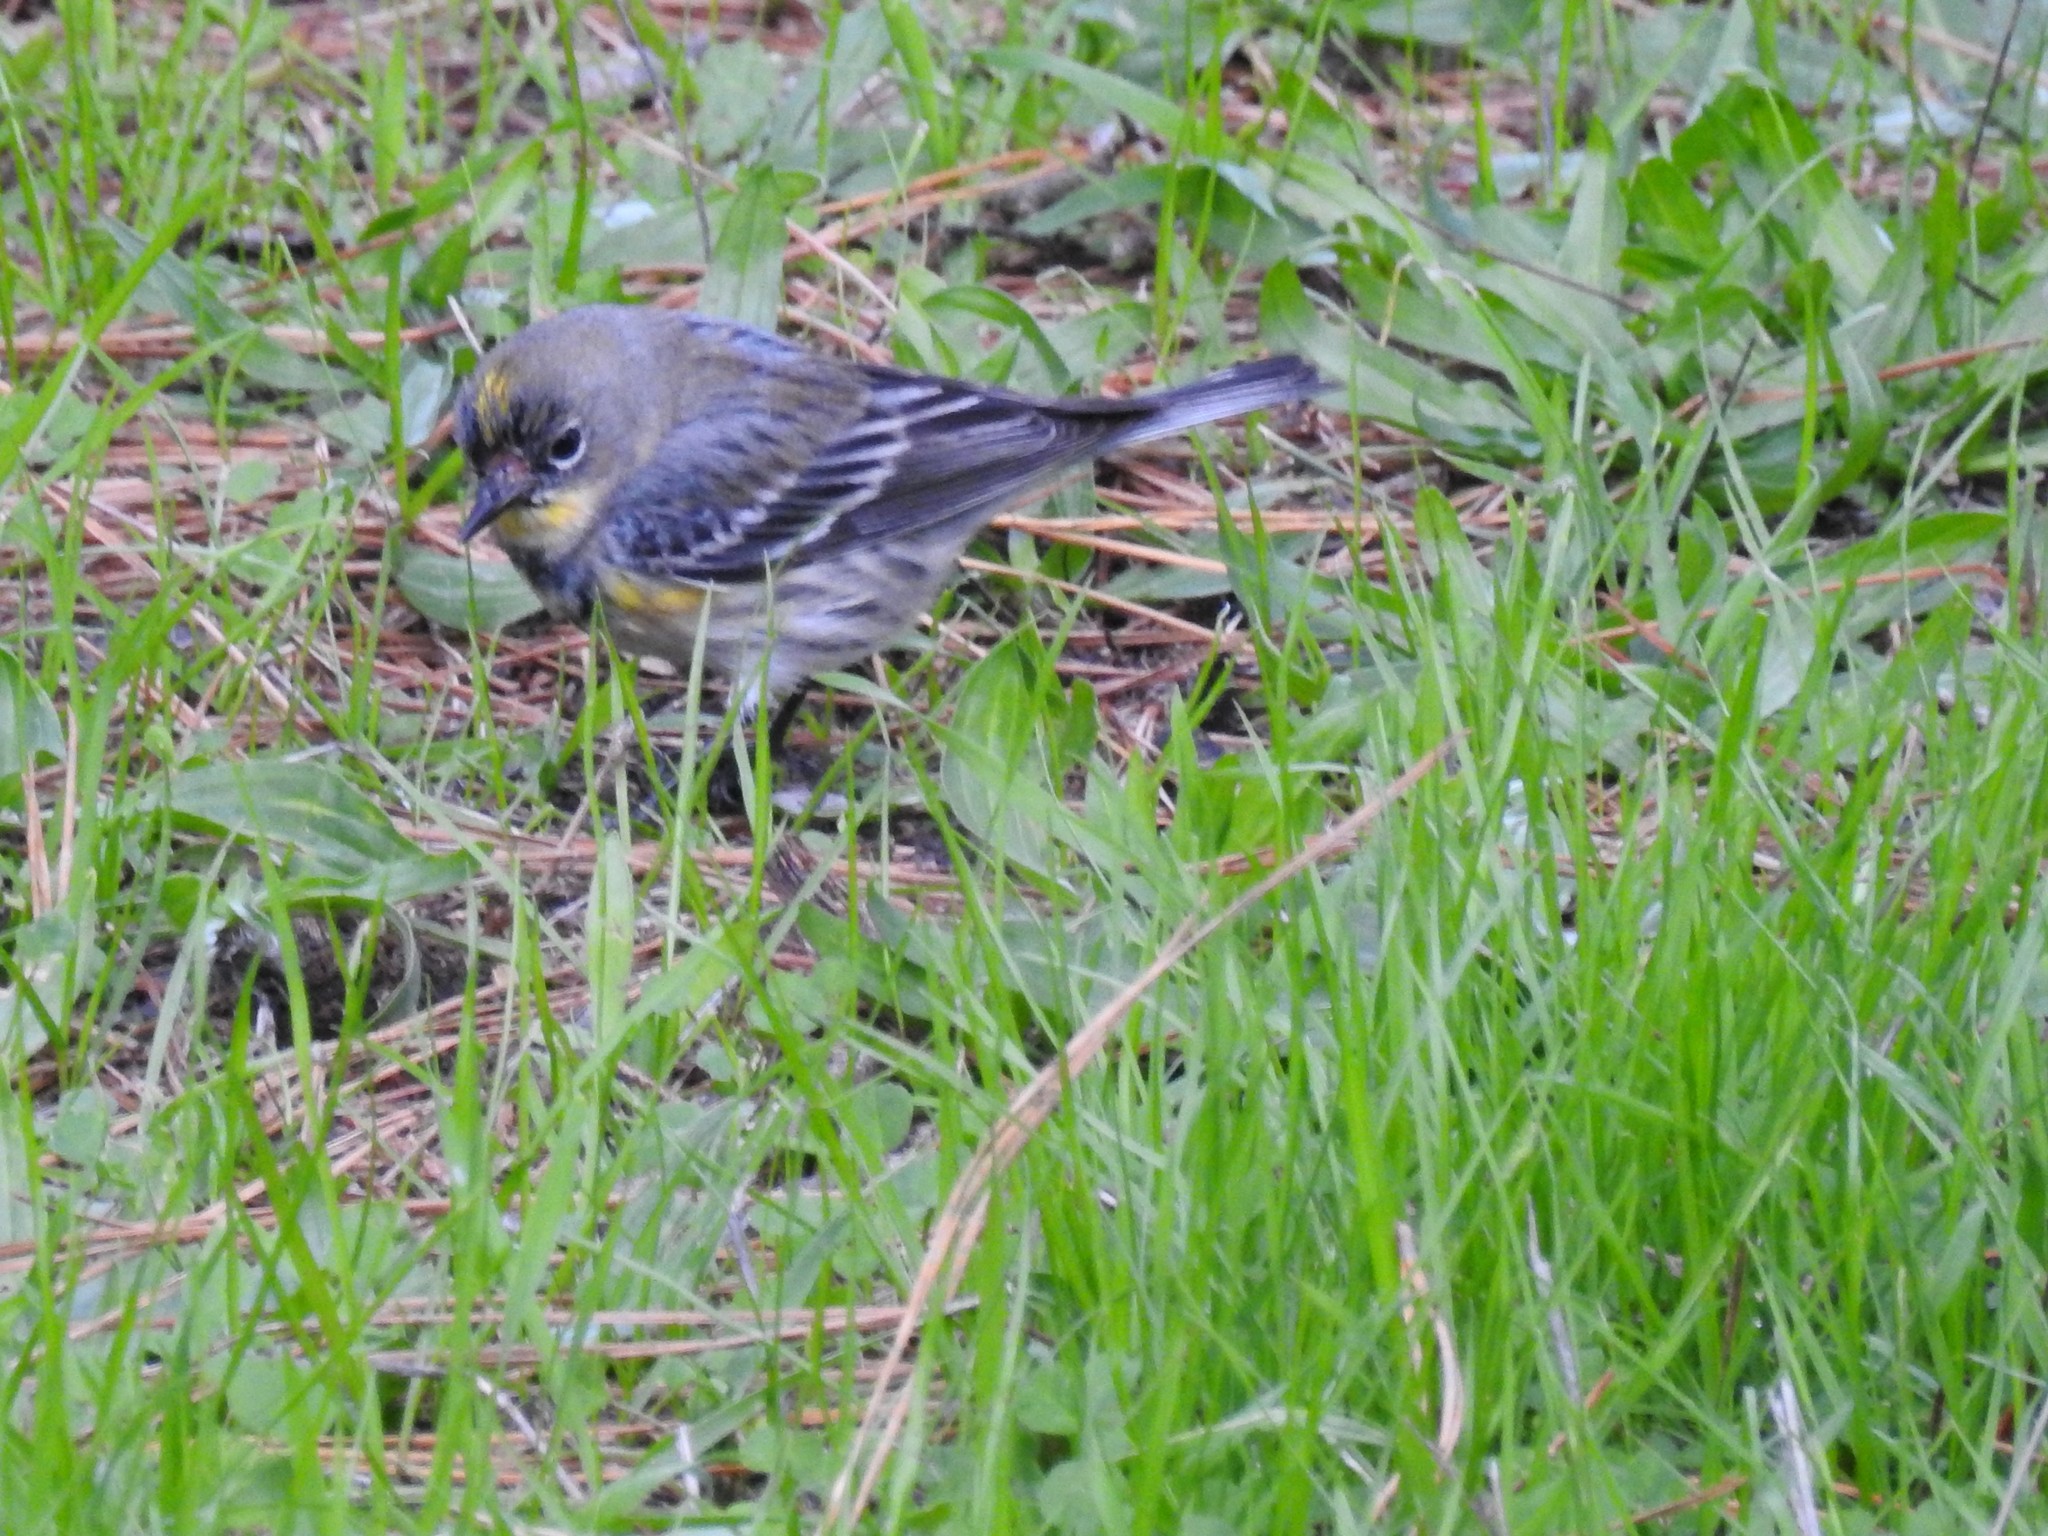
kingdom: Animalia
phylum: Chordata
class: Aves
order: Passeriformes
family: Parulidae
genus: Setophaga
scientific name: Setophaga coronata
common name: Myrtle warbler
